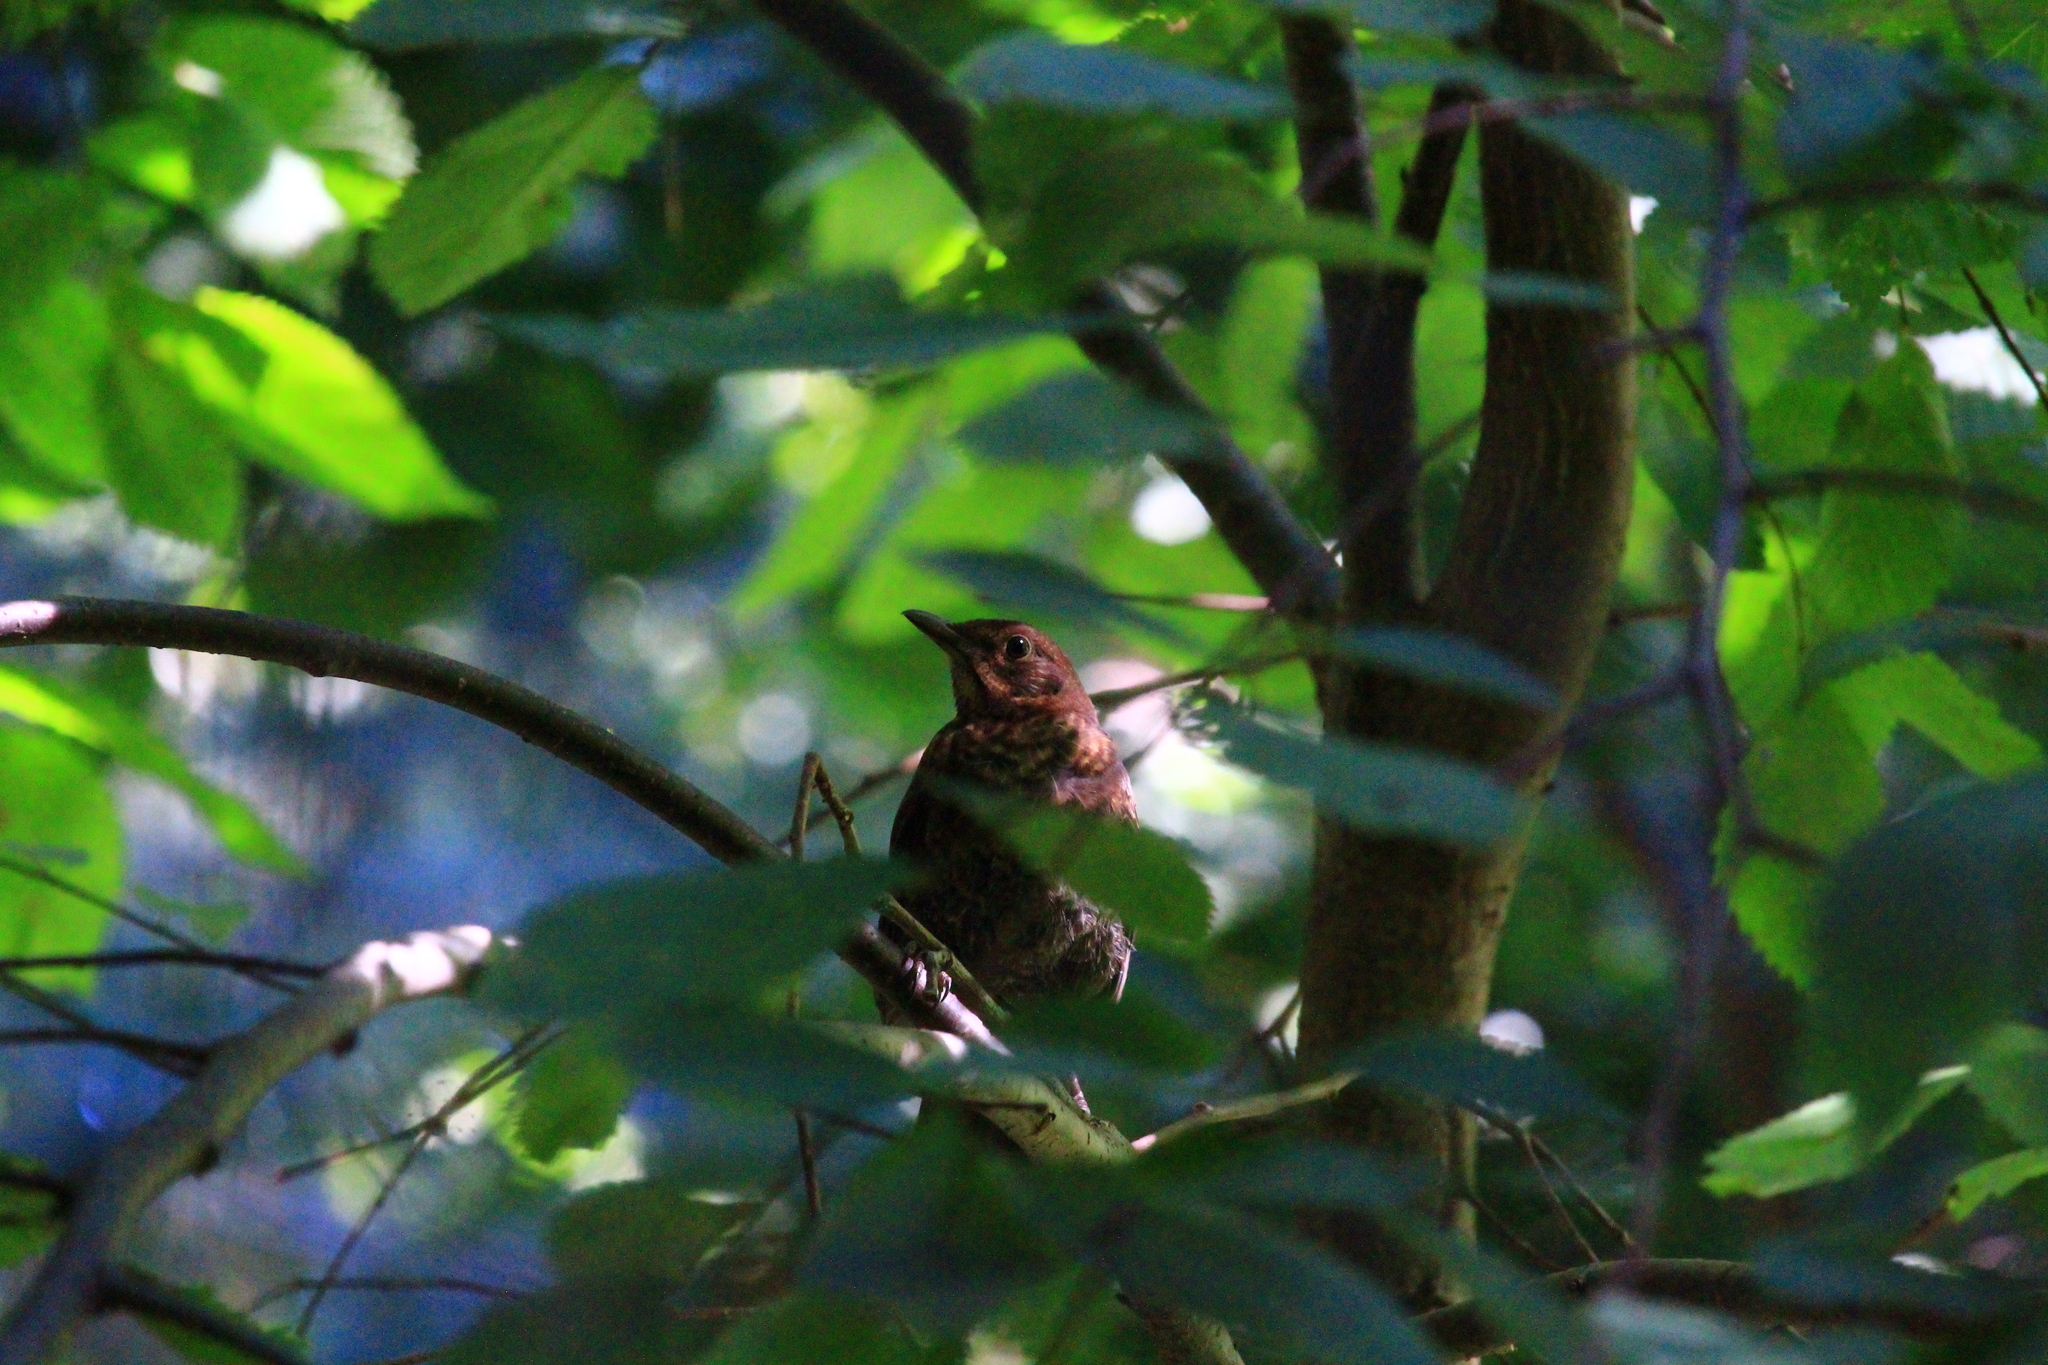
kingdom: Animalia
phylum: Chordata
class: Aves
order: Passeriformes
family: Turdidae
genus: Turdus
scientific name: Turdus merula
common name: Common blackbird
